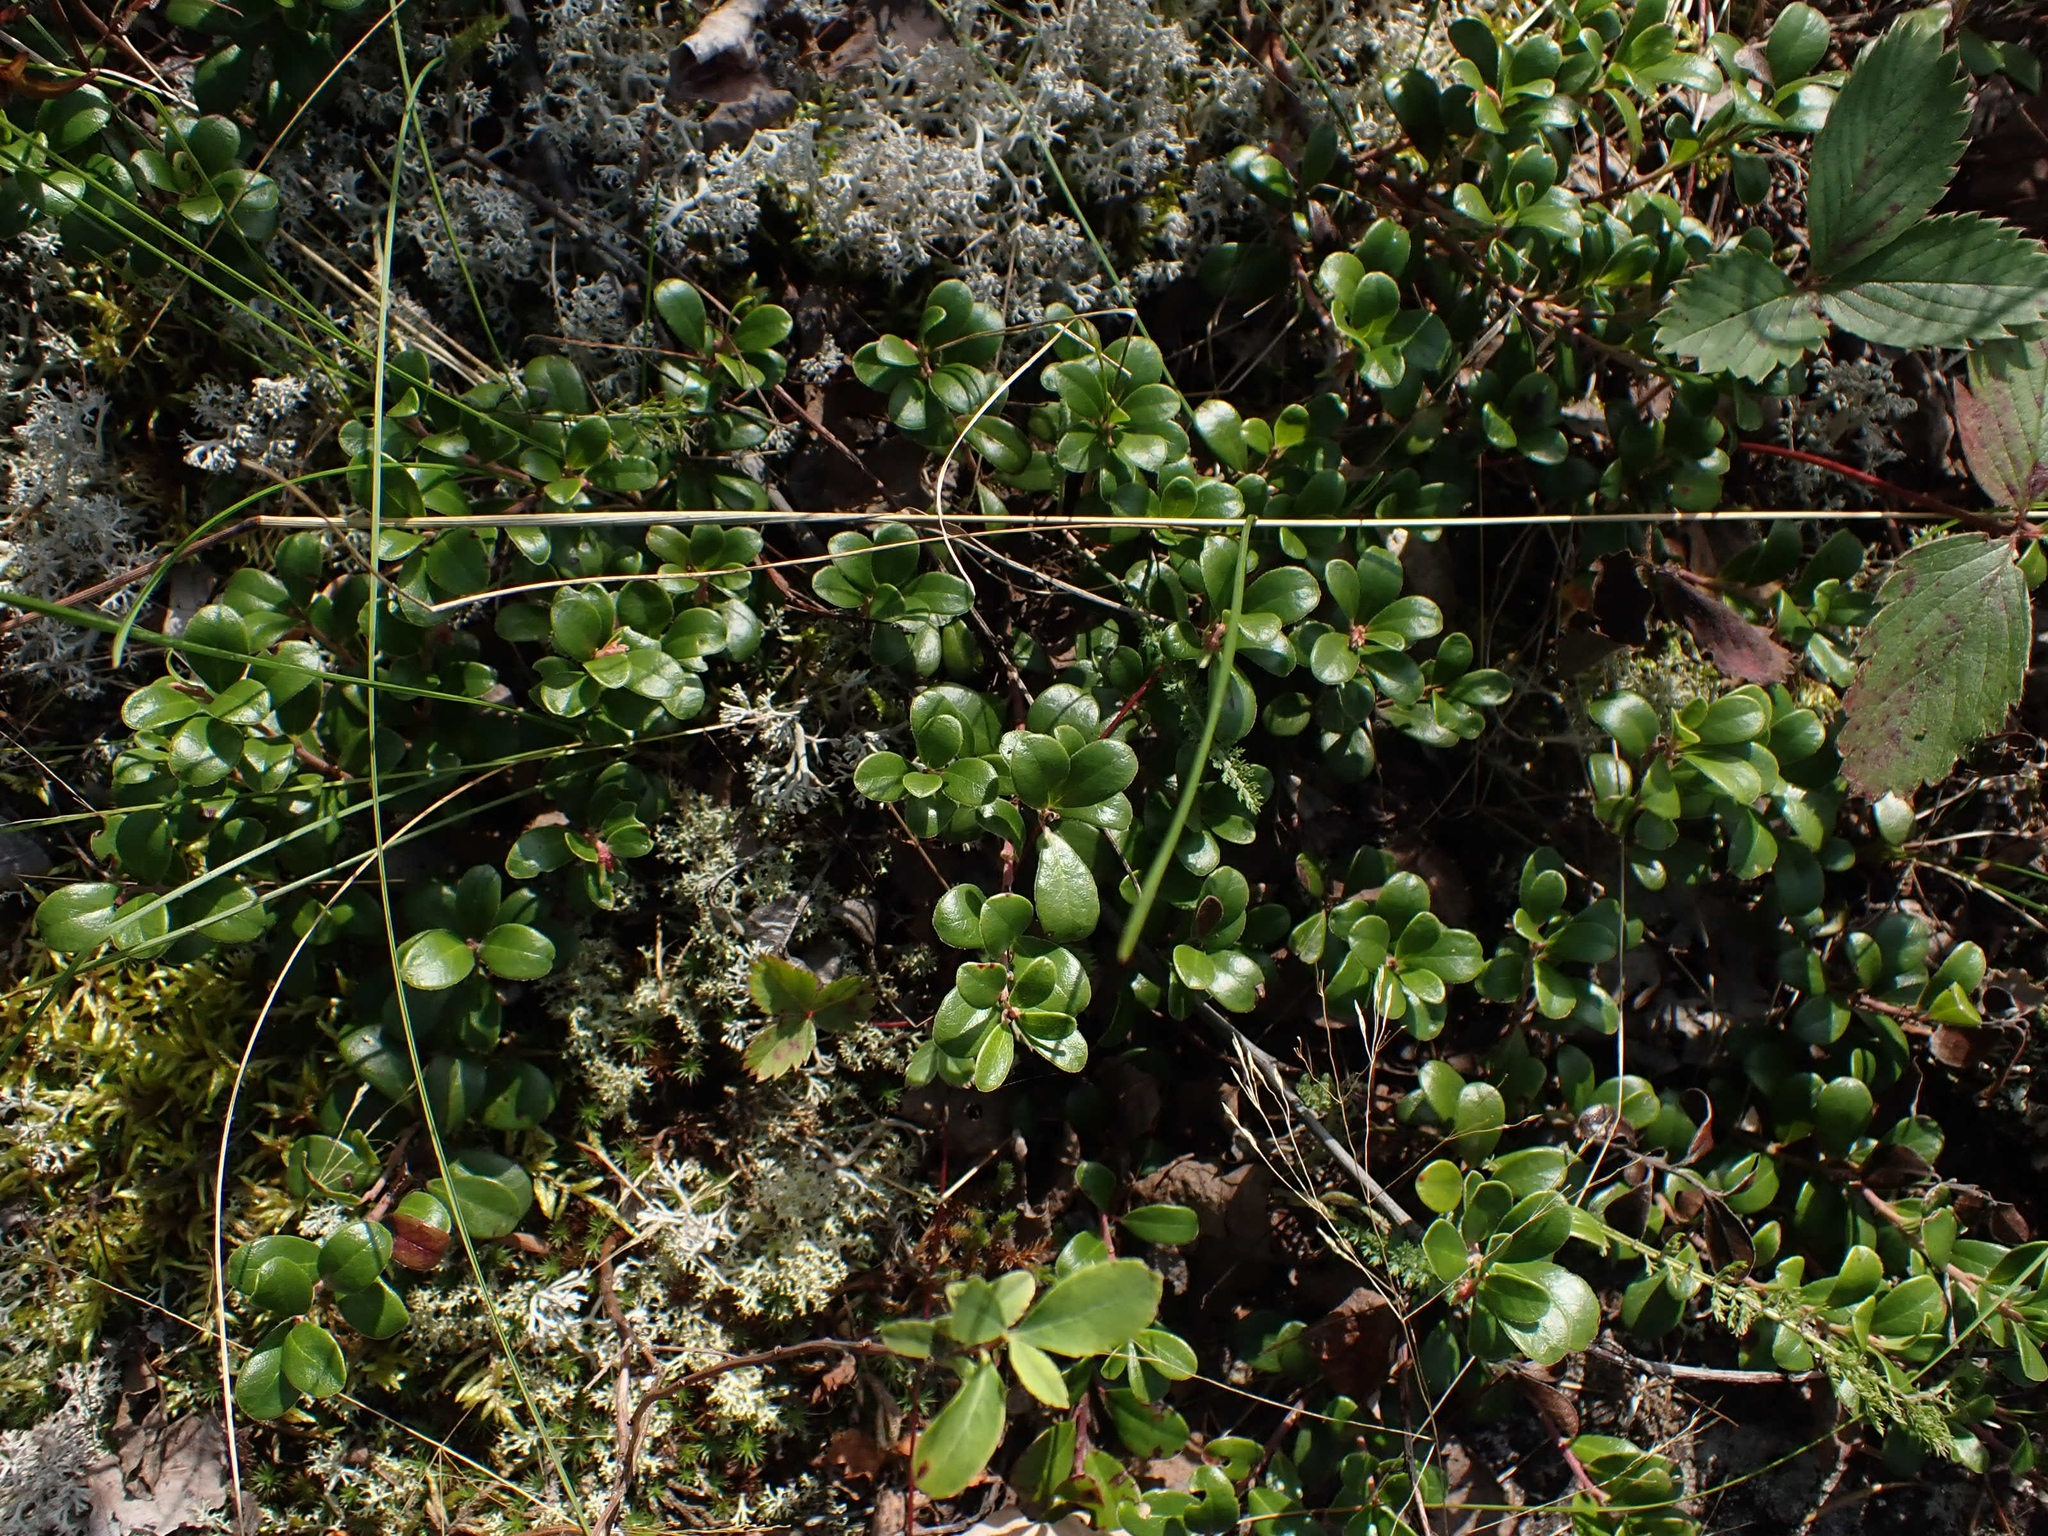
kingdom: Plantae
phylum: Tracheophyta
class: Magnoliopsida
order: Ericales
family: Ericaceae
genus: Arctostaphylos
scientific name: Arctostaphylos uva-ursi
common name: Bearberry
